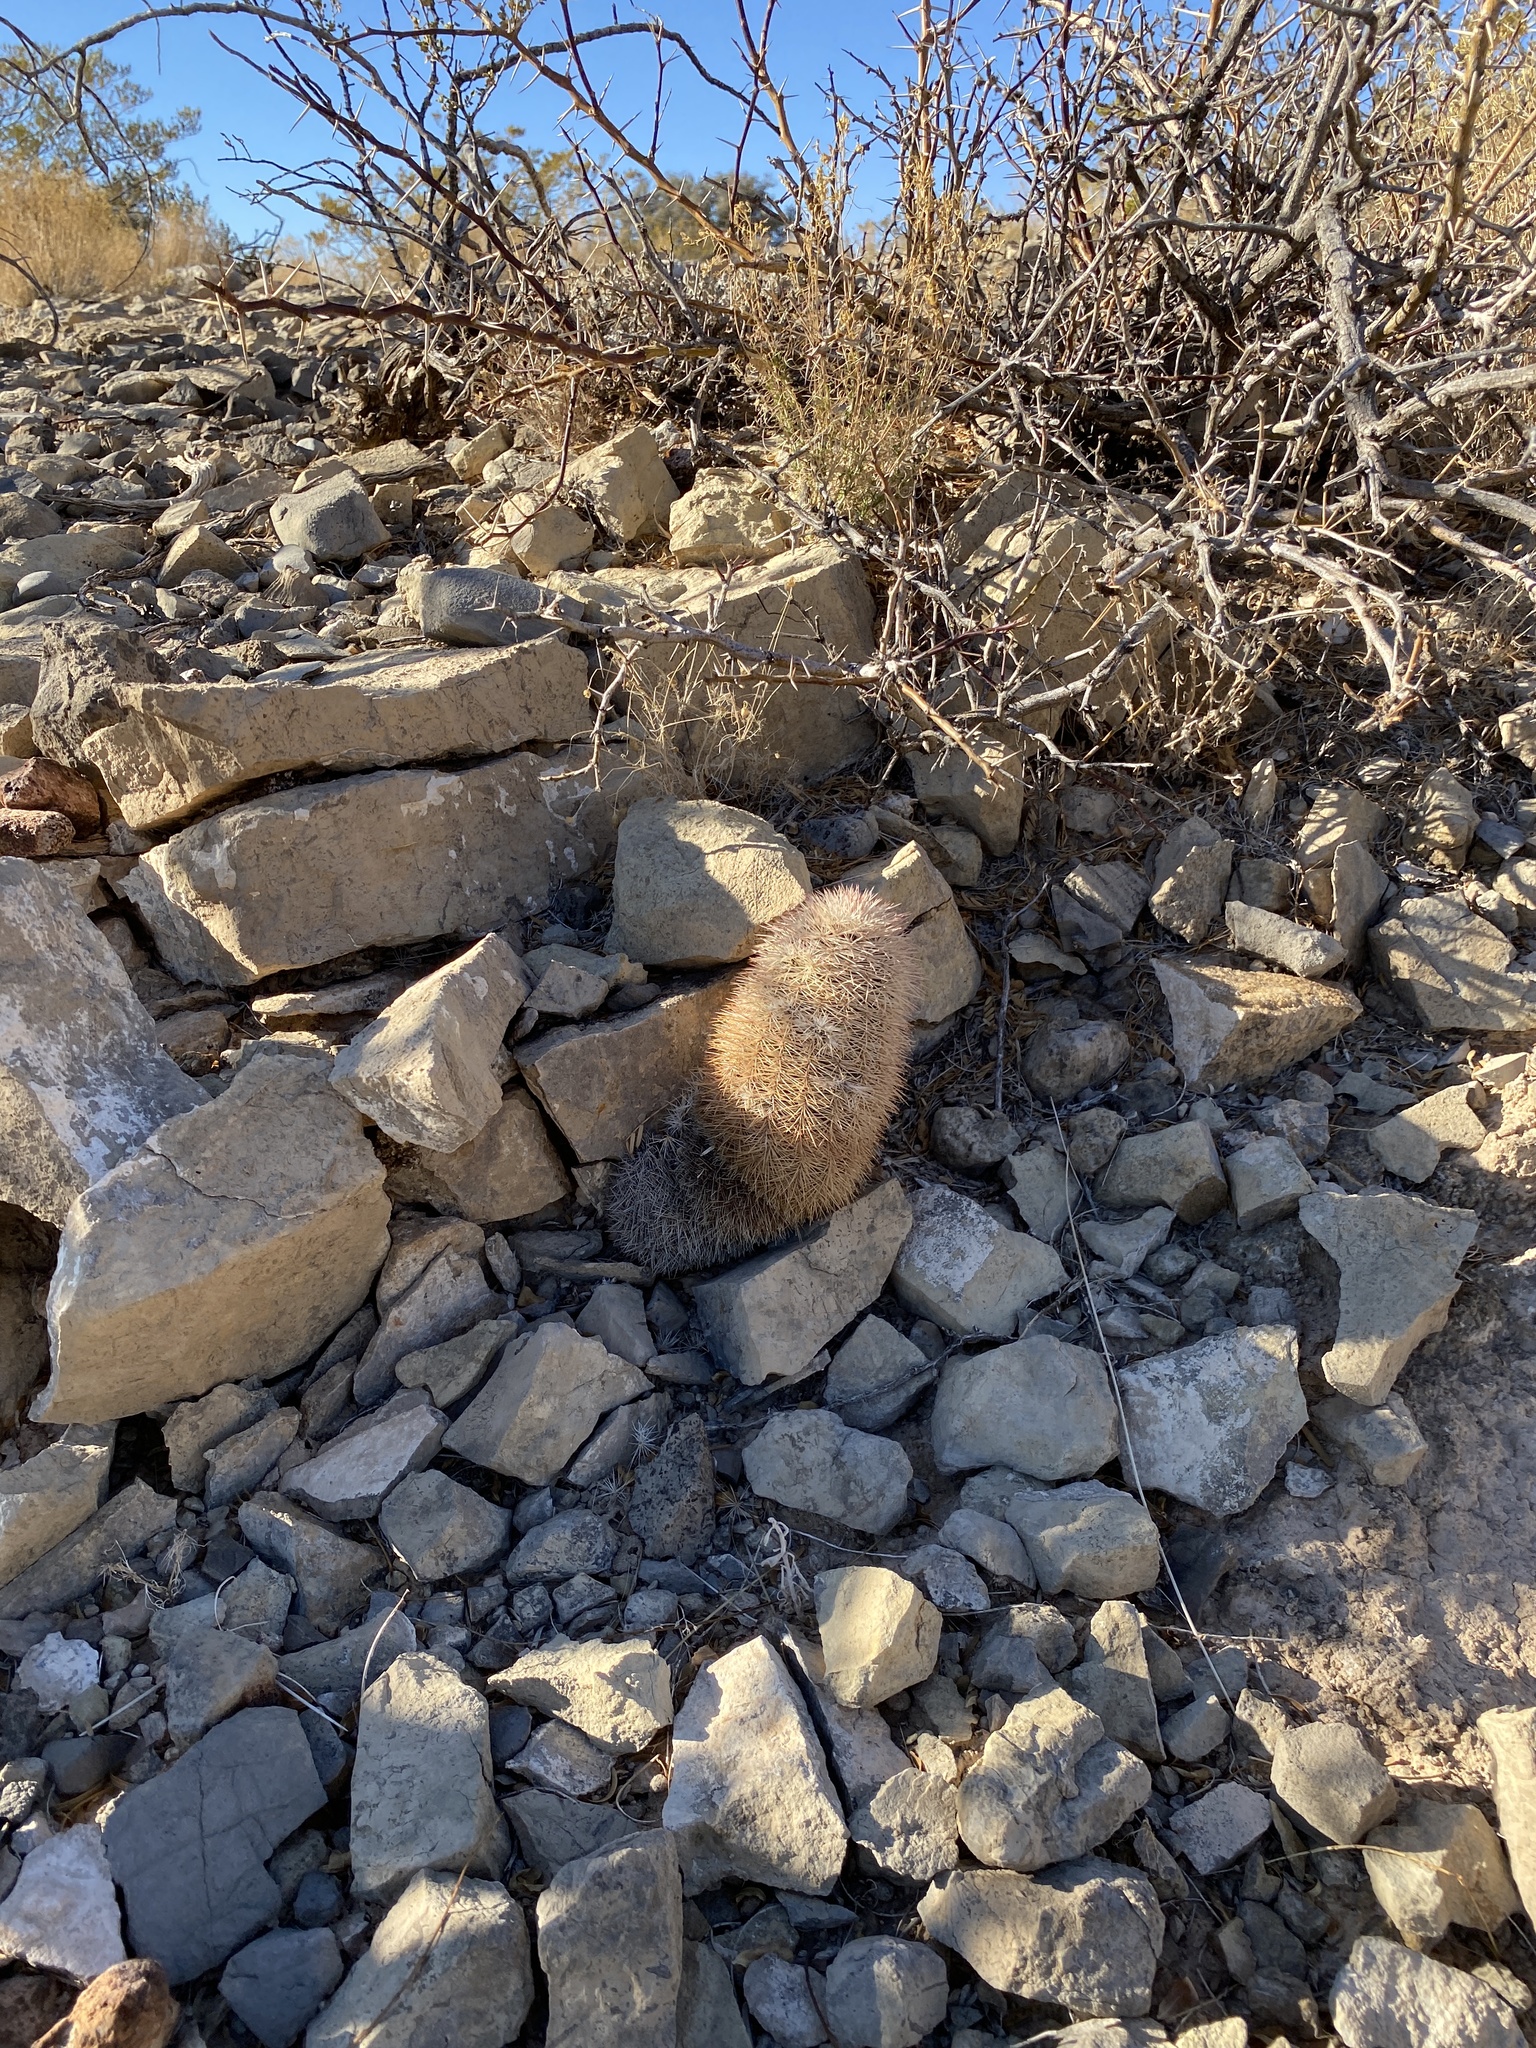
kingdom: Plantae
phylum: Tracheophyta
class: Magnoliopsida
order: Caryophyllales
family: Cactaceae
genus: Echinocereus
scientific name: Echinocereus dasyacanthus
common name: Spiny hedgehog cactus
